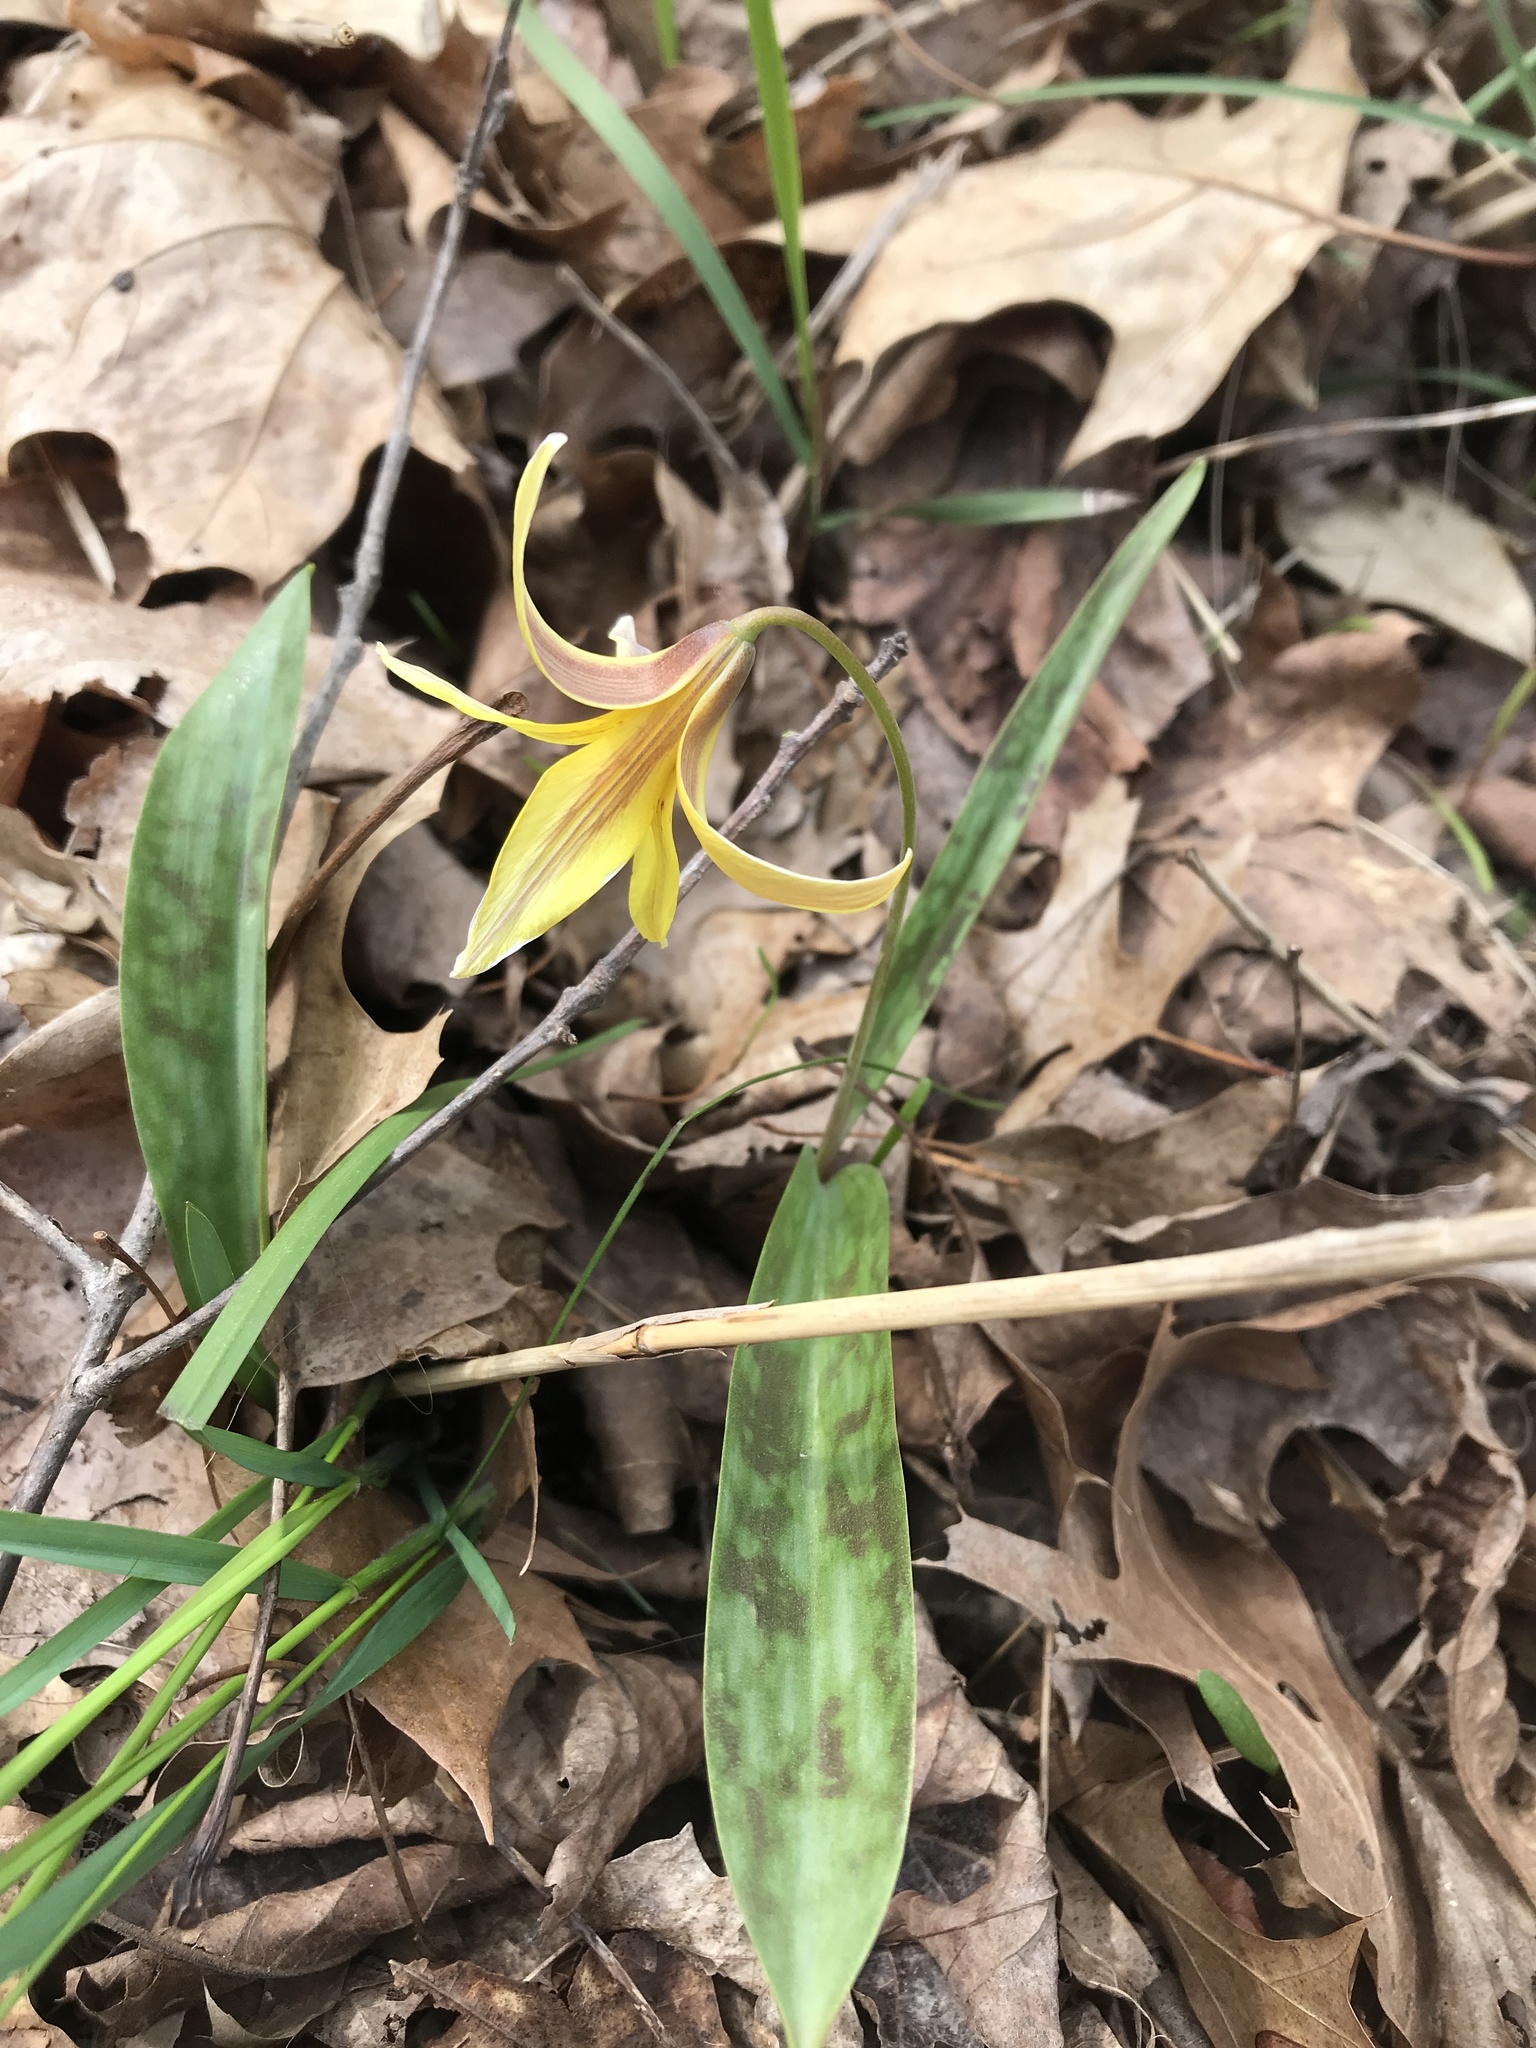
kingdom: Plantae
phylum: Tracheophyta
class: Liliopsida
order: Liliales
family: Liliaceae
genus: Erythronium
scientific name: Erythronium americanum
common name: Yellow adder's-tongue
